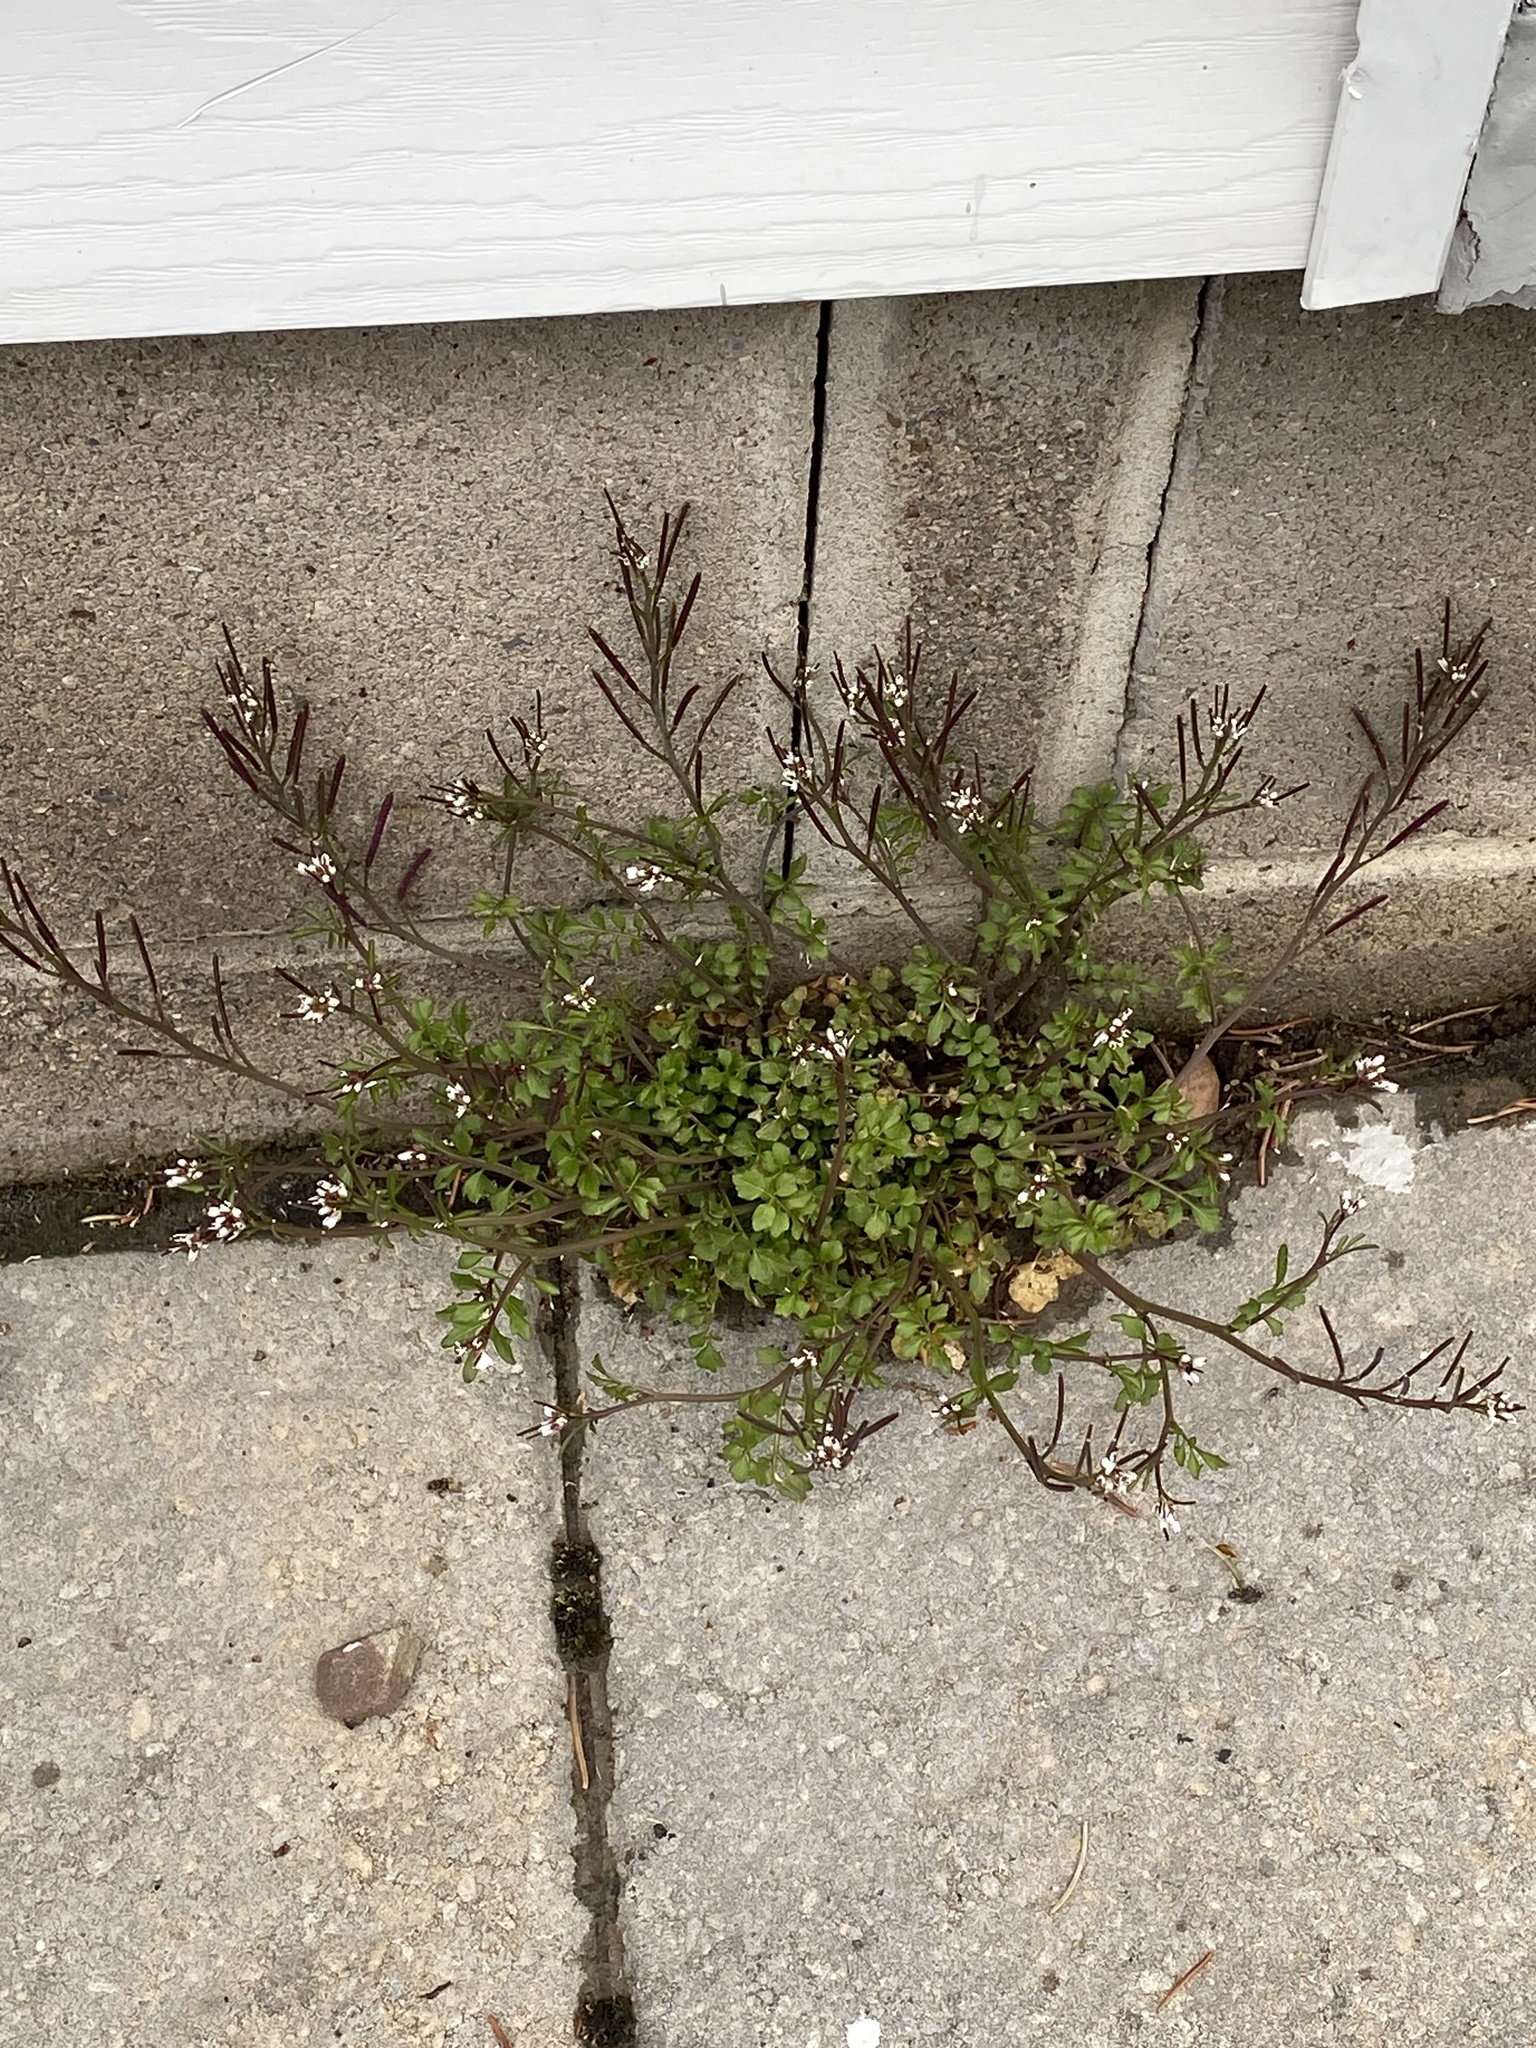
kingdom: Plantae
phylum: Tracheophyta
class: Magnoliopsida
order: Brassicales
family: Brassicaceae
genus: Cardamine
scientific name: Cardamine hirsuta
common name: Hairy bittercress
